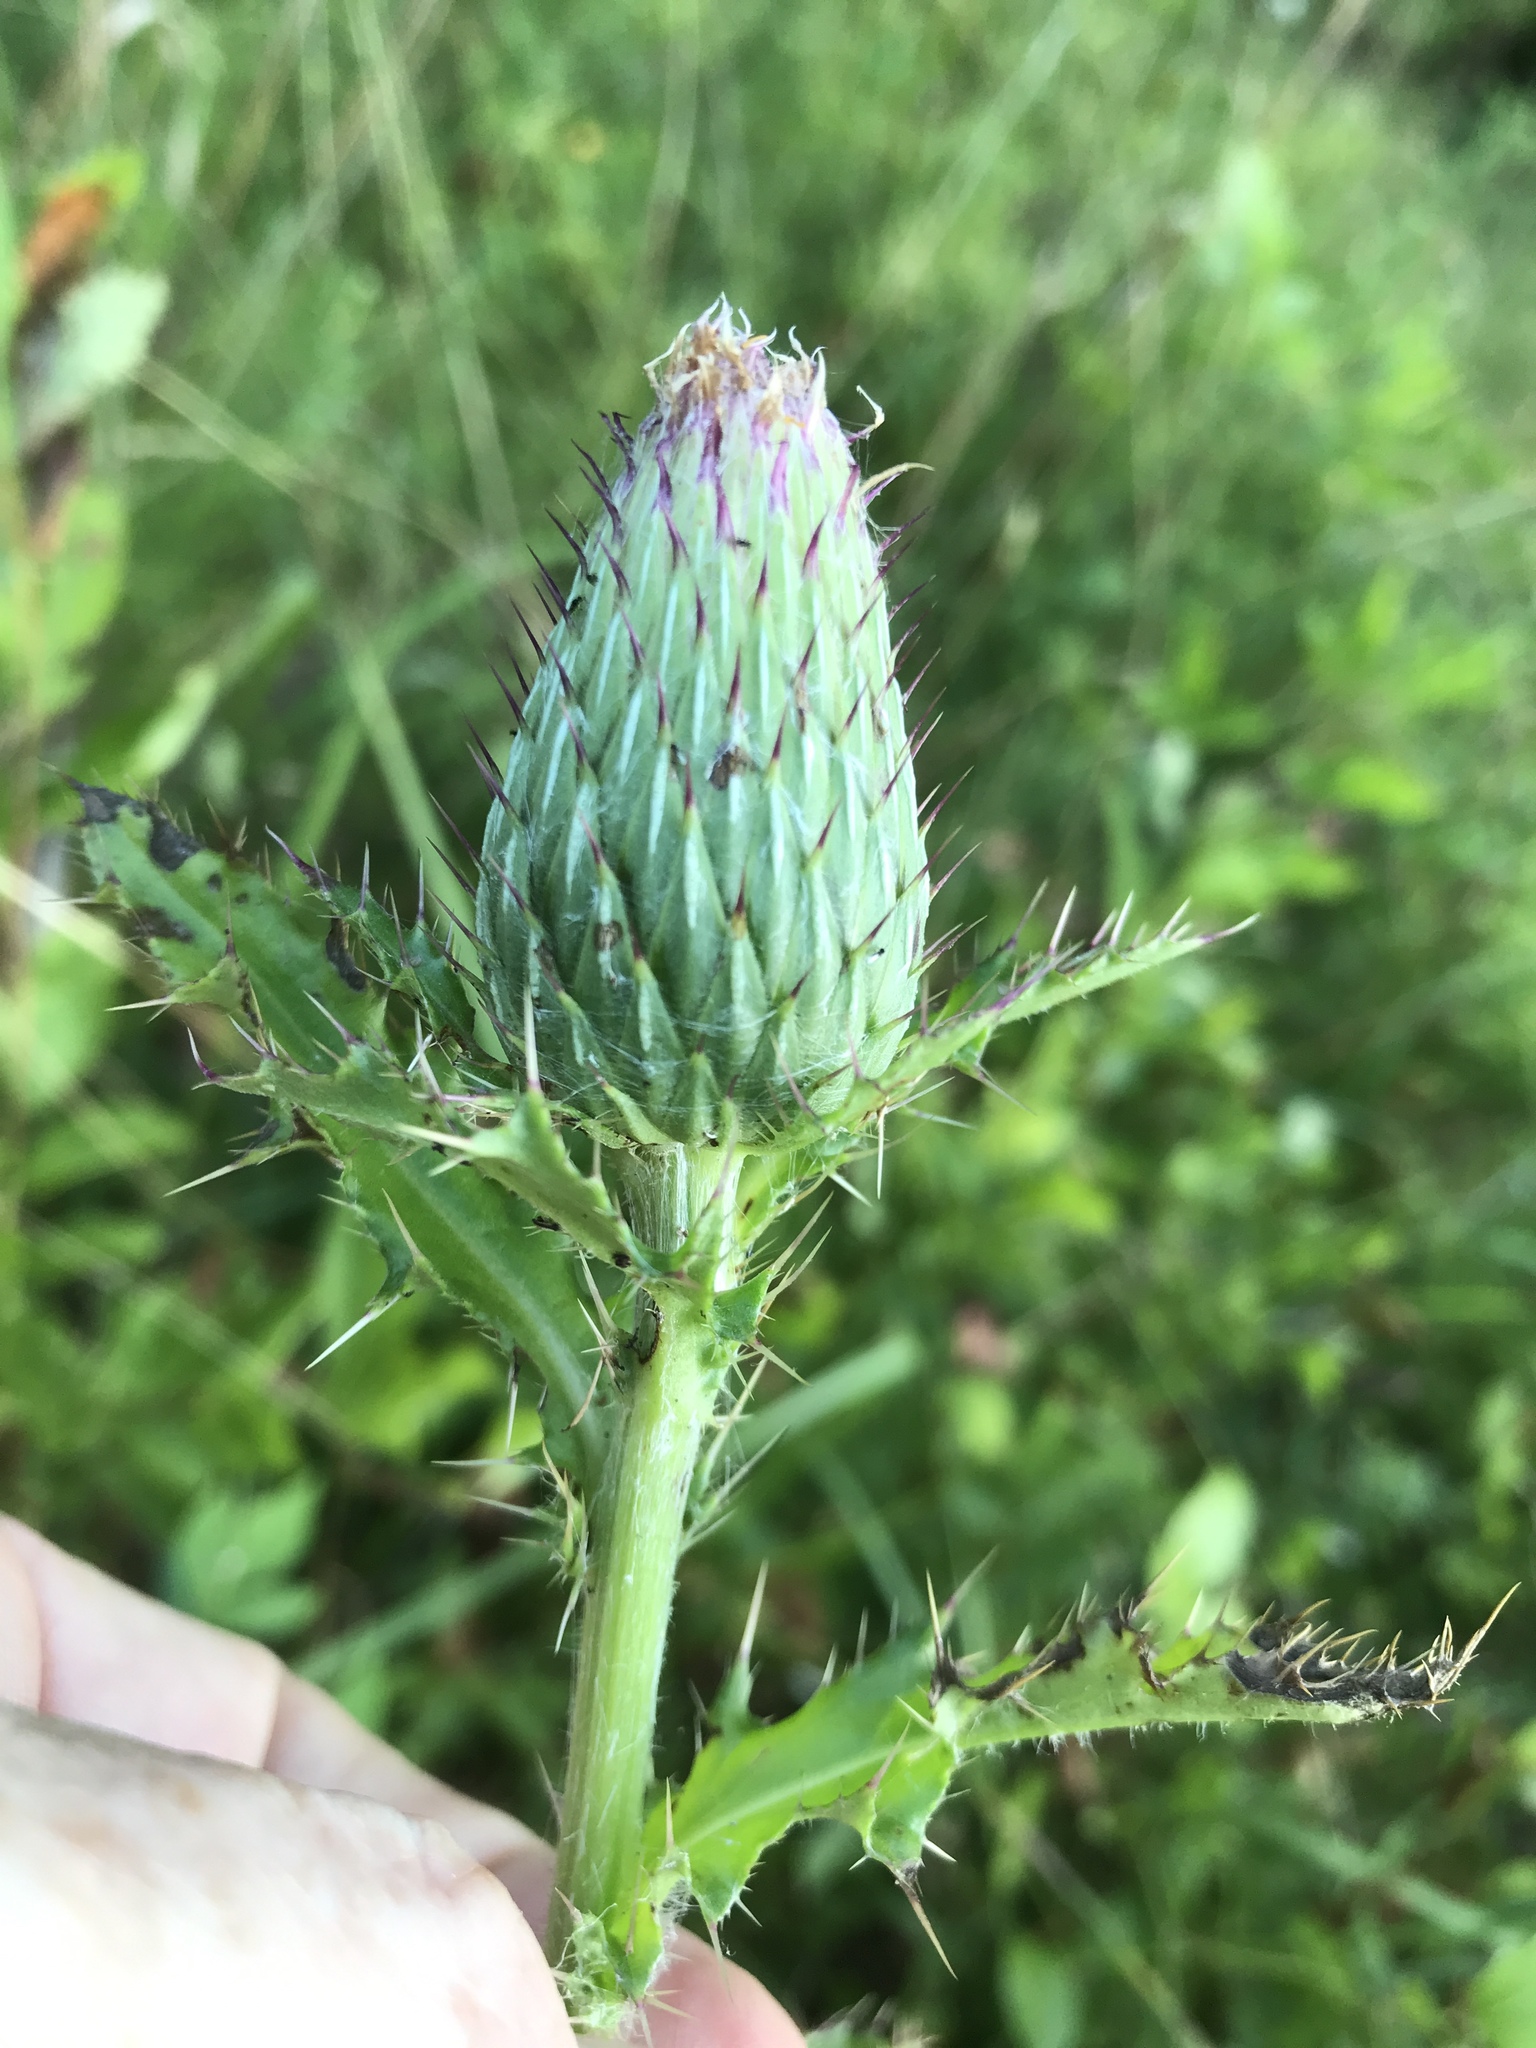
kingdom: Plantae
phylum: Tracheophyta
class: Magnoliopsida
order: Asterales
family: Asteraceae
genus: Cirsium
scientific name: Cirsium pumilum
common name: Pasture thistle
